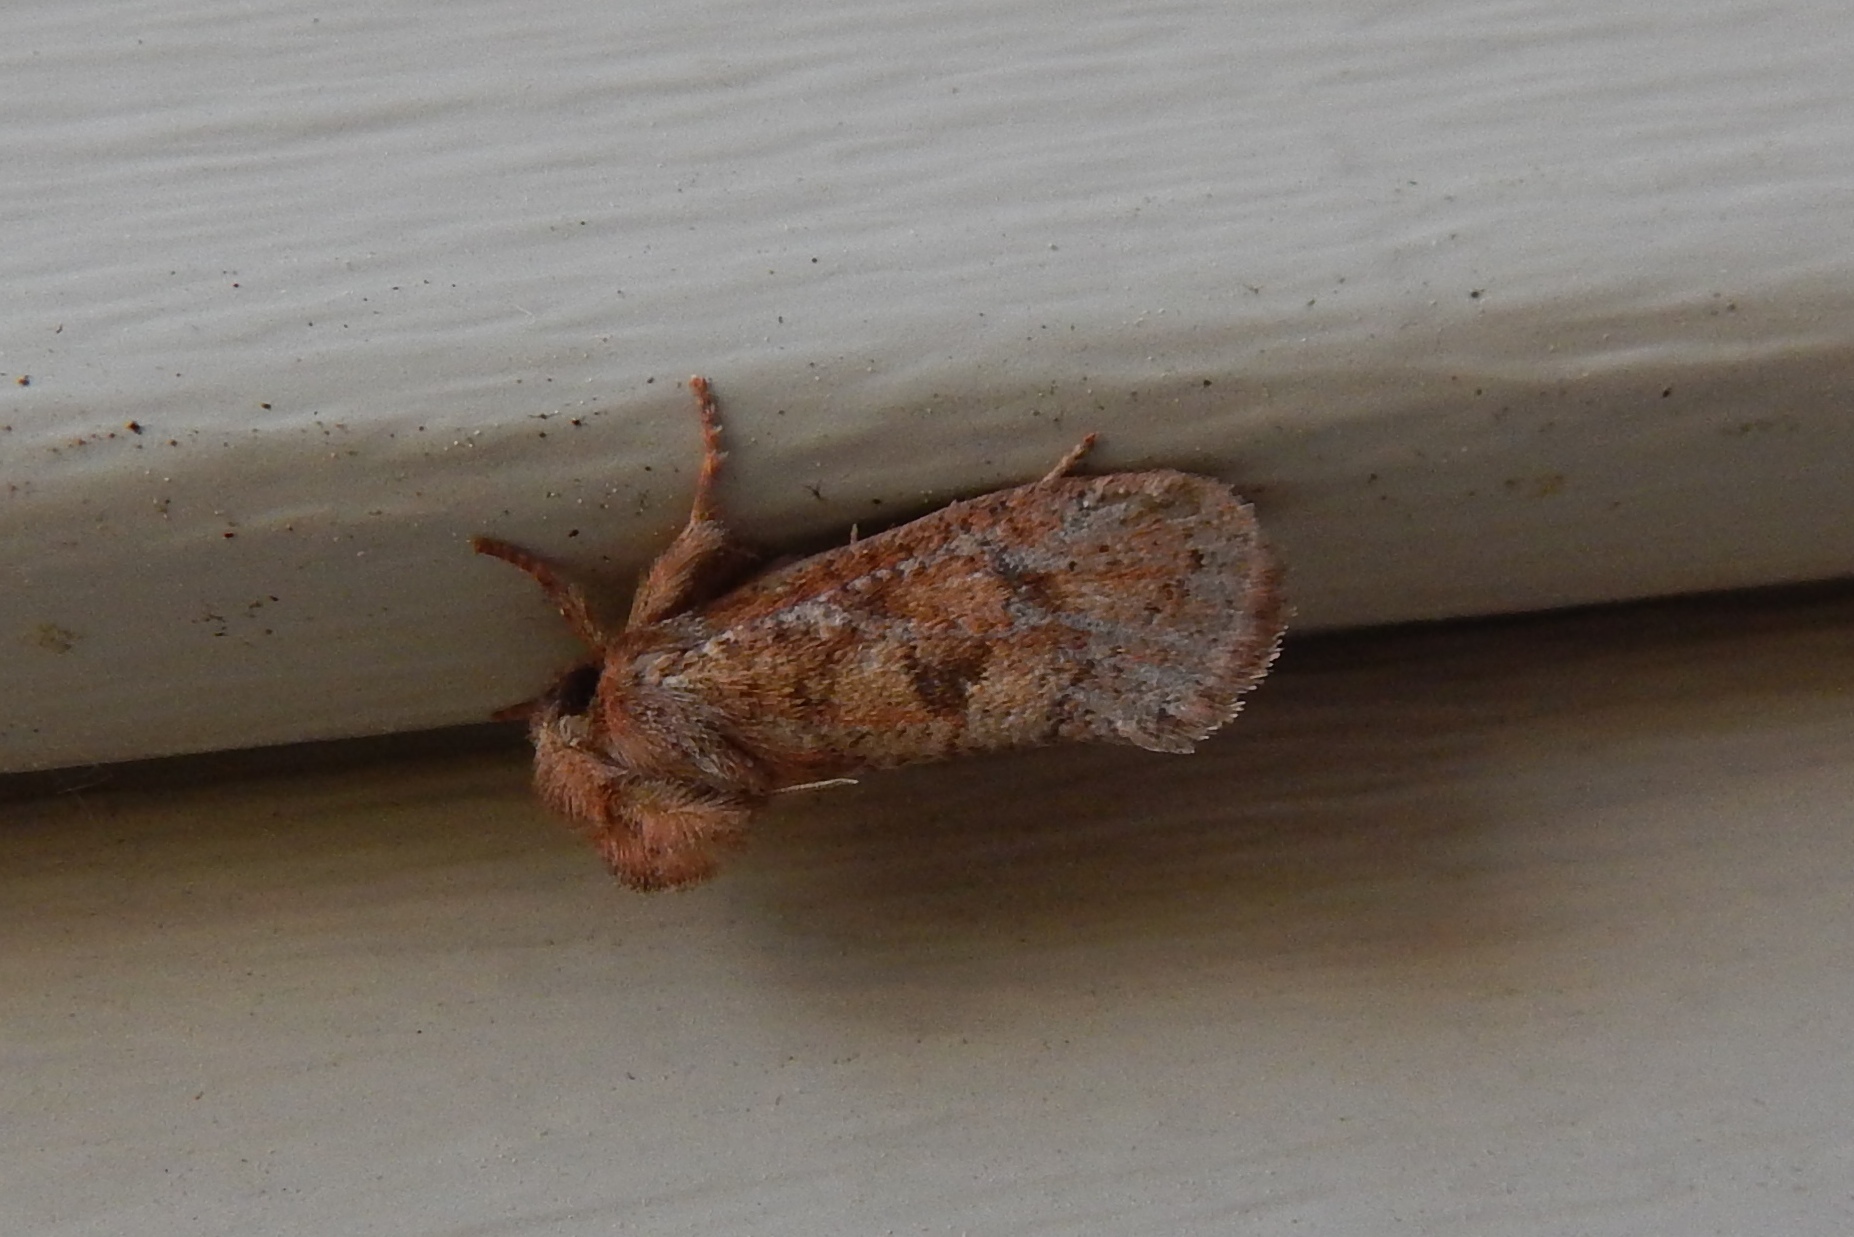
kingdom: Animalia
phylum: Arthropoda
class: Insecta
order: Lepidoptera
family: Tineidae
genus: Acrolophus
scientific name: Acrolophus plumifrontella
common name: Eastern grass tubeworm moth
